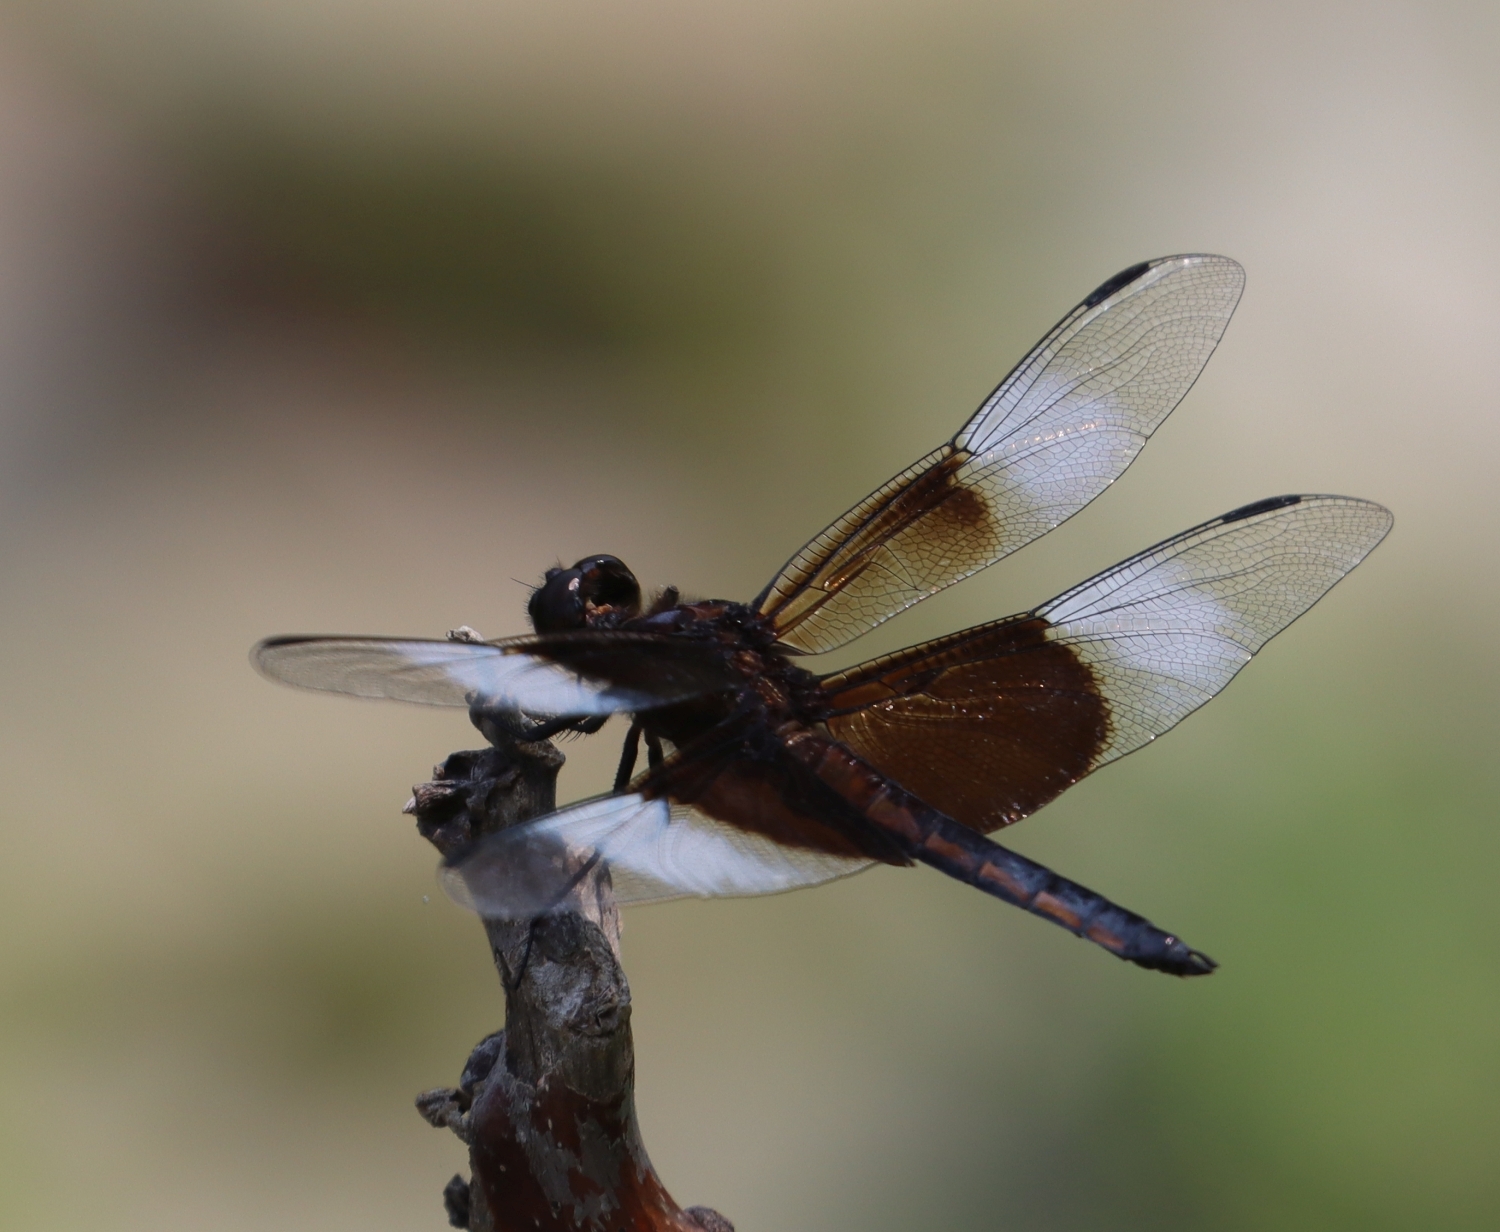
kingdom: Animalia
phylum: Arthropoda
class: Insecta
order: Odonata
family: Libellulidae
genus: Libellula
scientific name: Libellula luctuosa
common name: Widow skimmer
